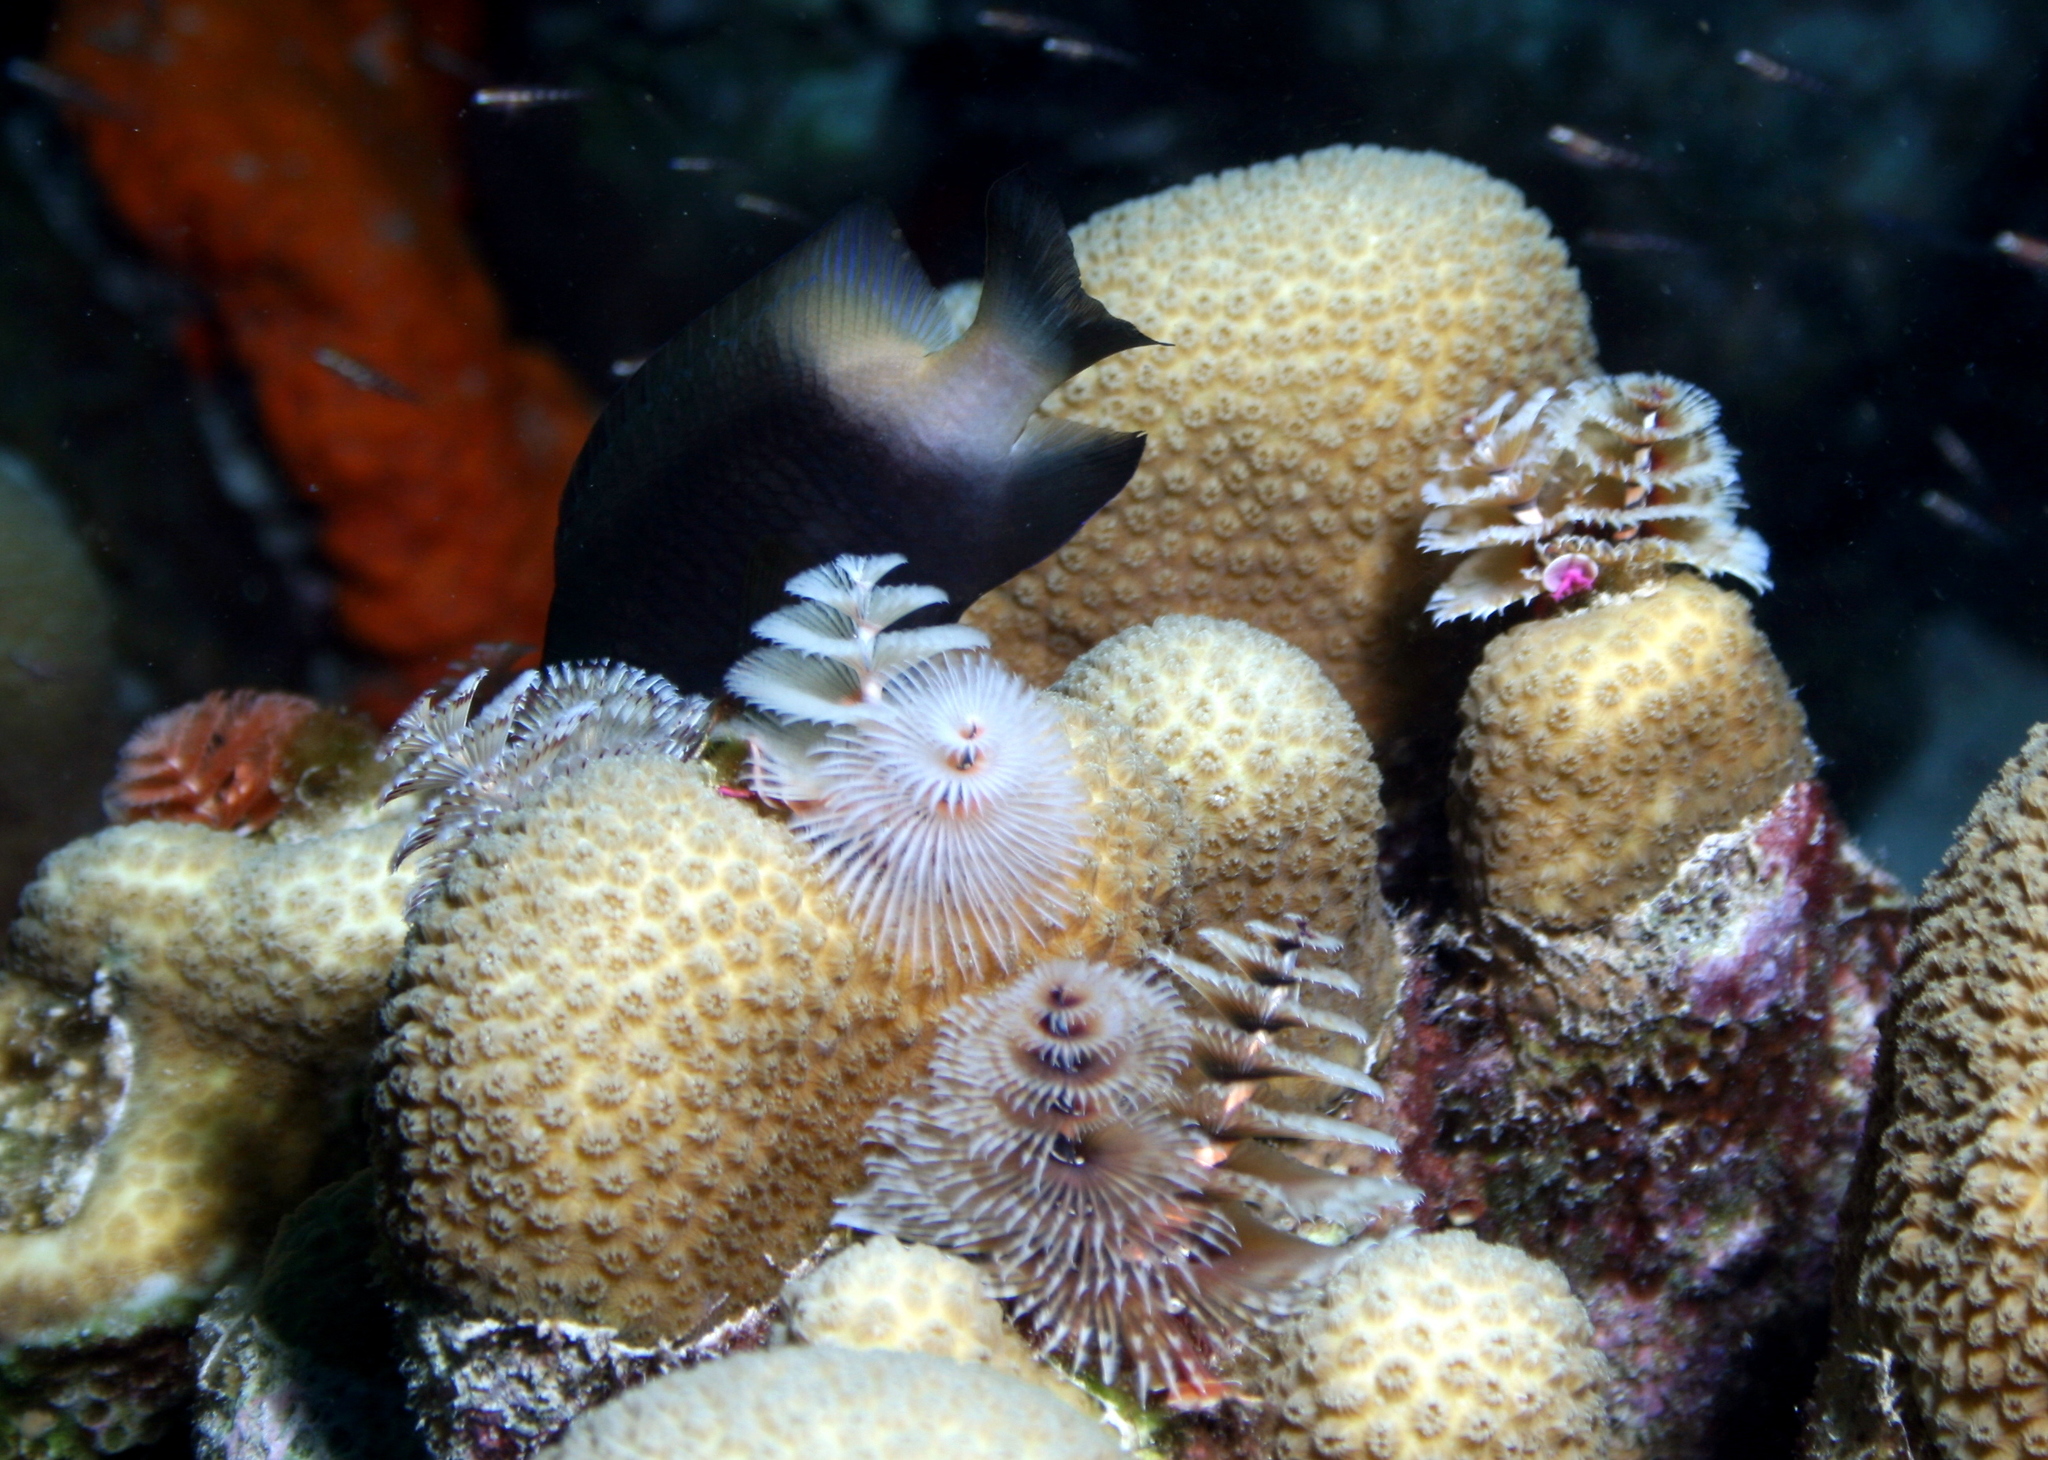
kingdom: Animalia
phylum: Annelida
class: Polychaeta
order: Sabellida
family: Serpulidae
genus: Spirobranchus
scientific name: Spirobranchus giganteus
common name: Christmas tree worm
